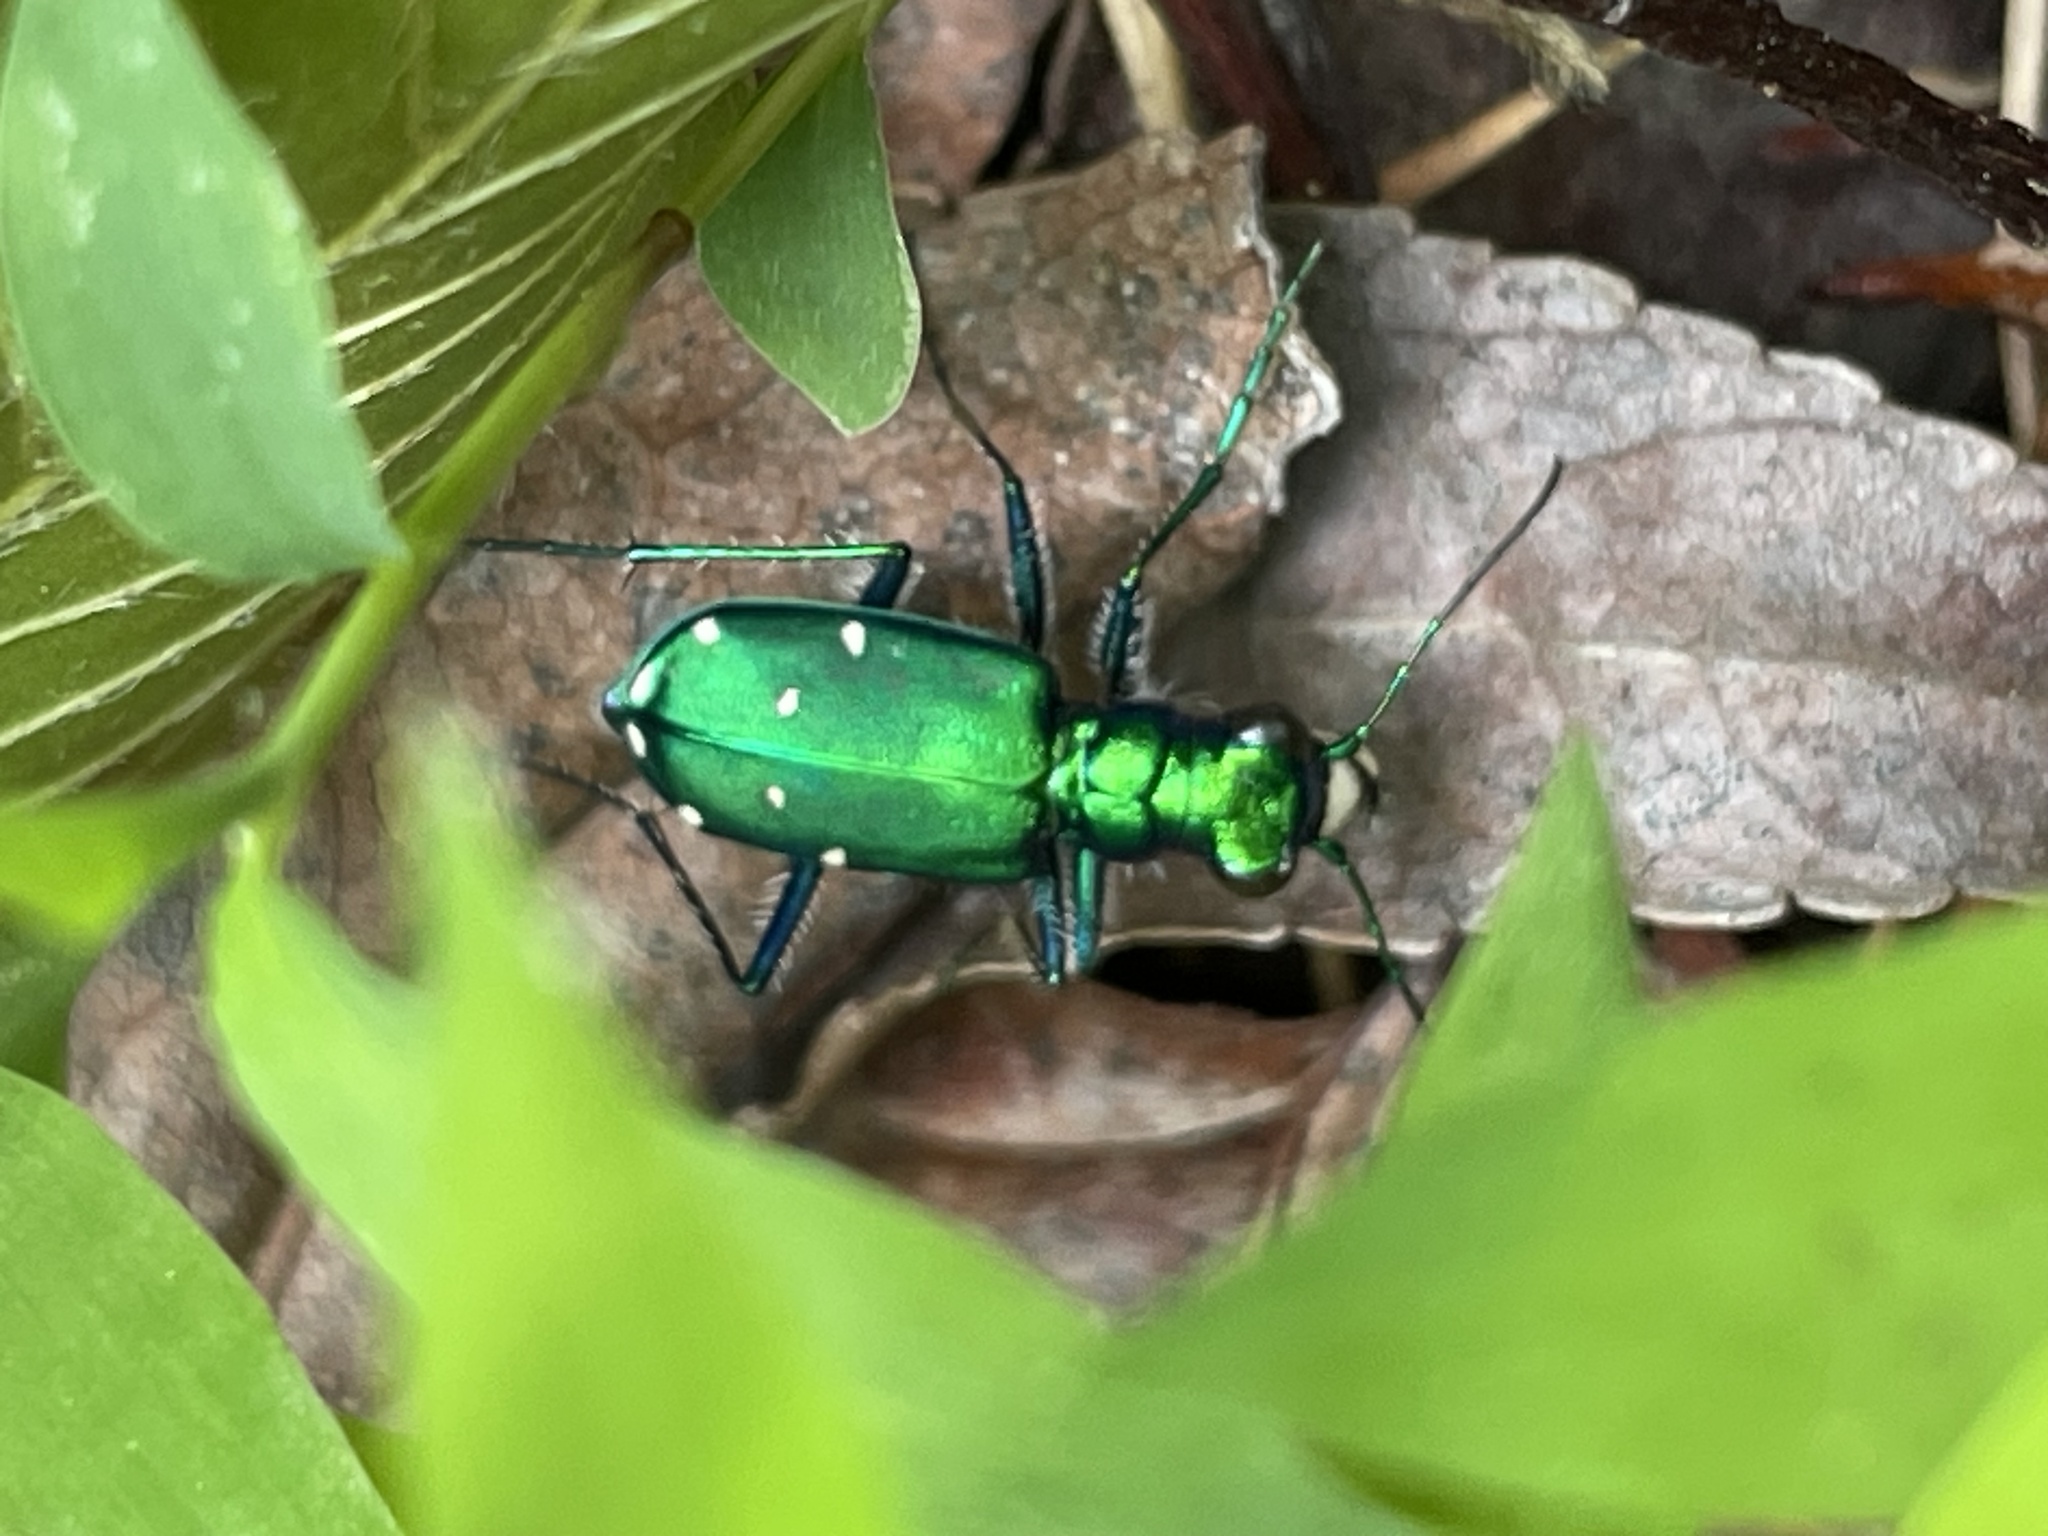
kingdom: Animalia
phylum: Arthropoda
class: Insecta
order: Coleoptera
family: Carabidae
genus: Cicindela
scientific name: Cicindela sexguttata
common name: Six-spotted tiger beetle
